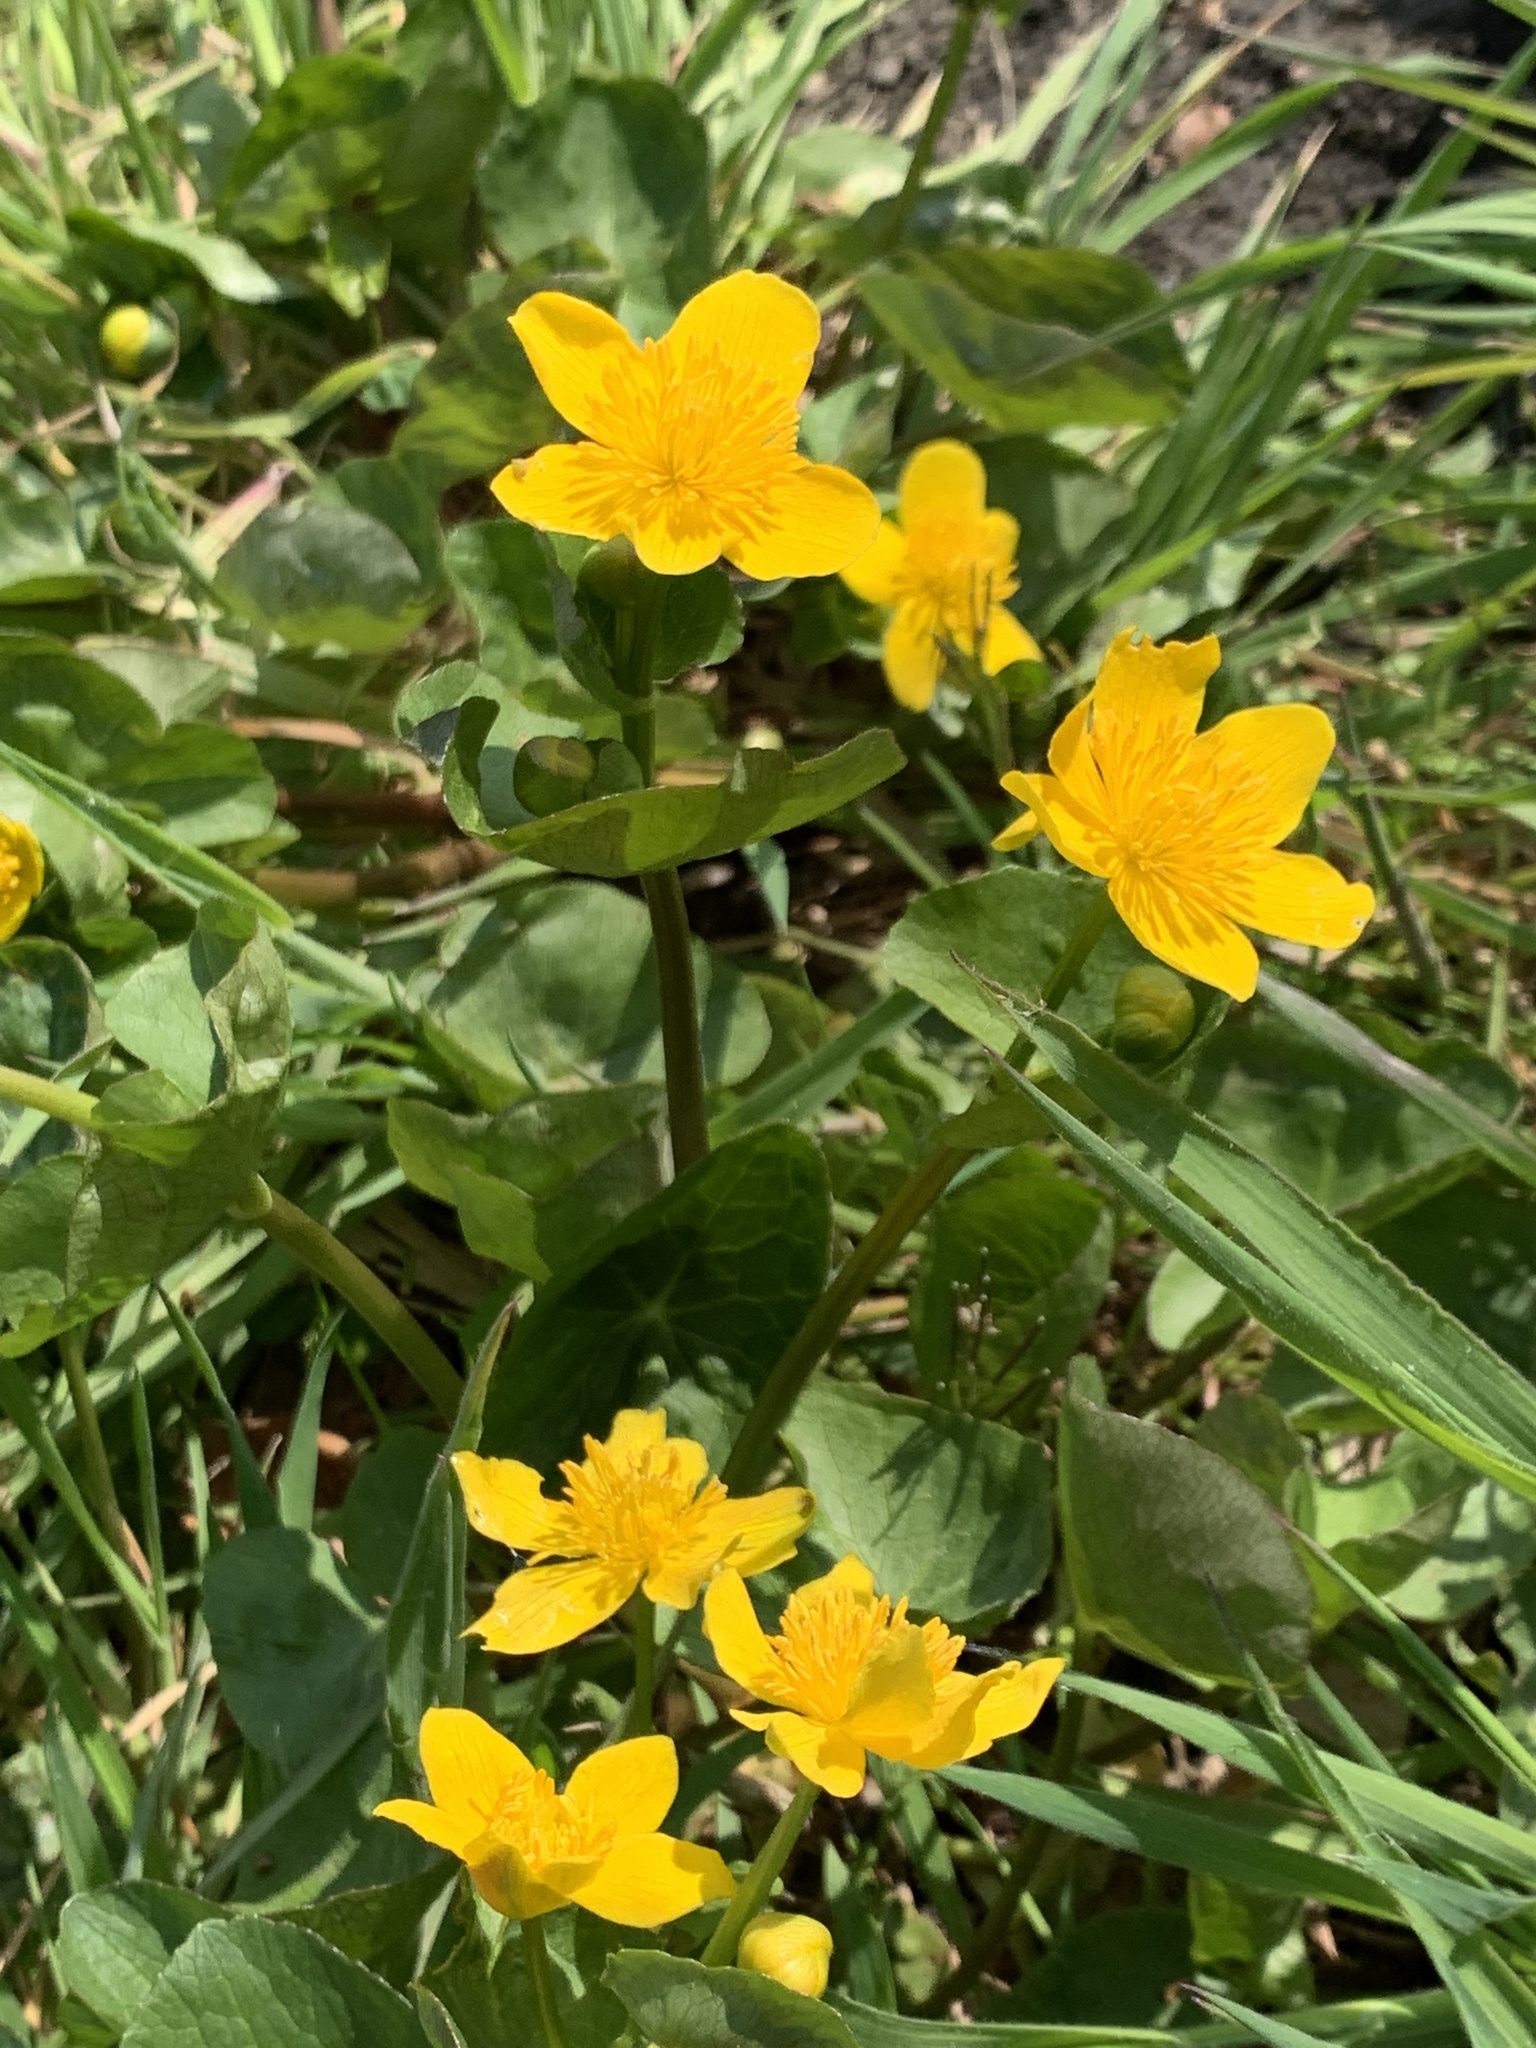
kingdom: Plantae
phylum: Tracheophyta
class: Magnoliopsida
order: Ranunculales
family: Ranunculaceae
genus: Caltha
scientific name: Caltha palustris
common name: Marsh marigold
